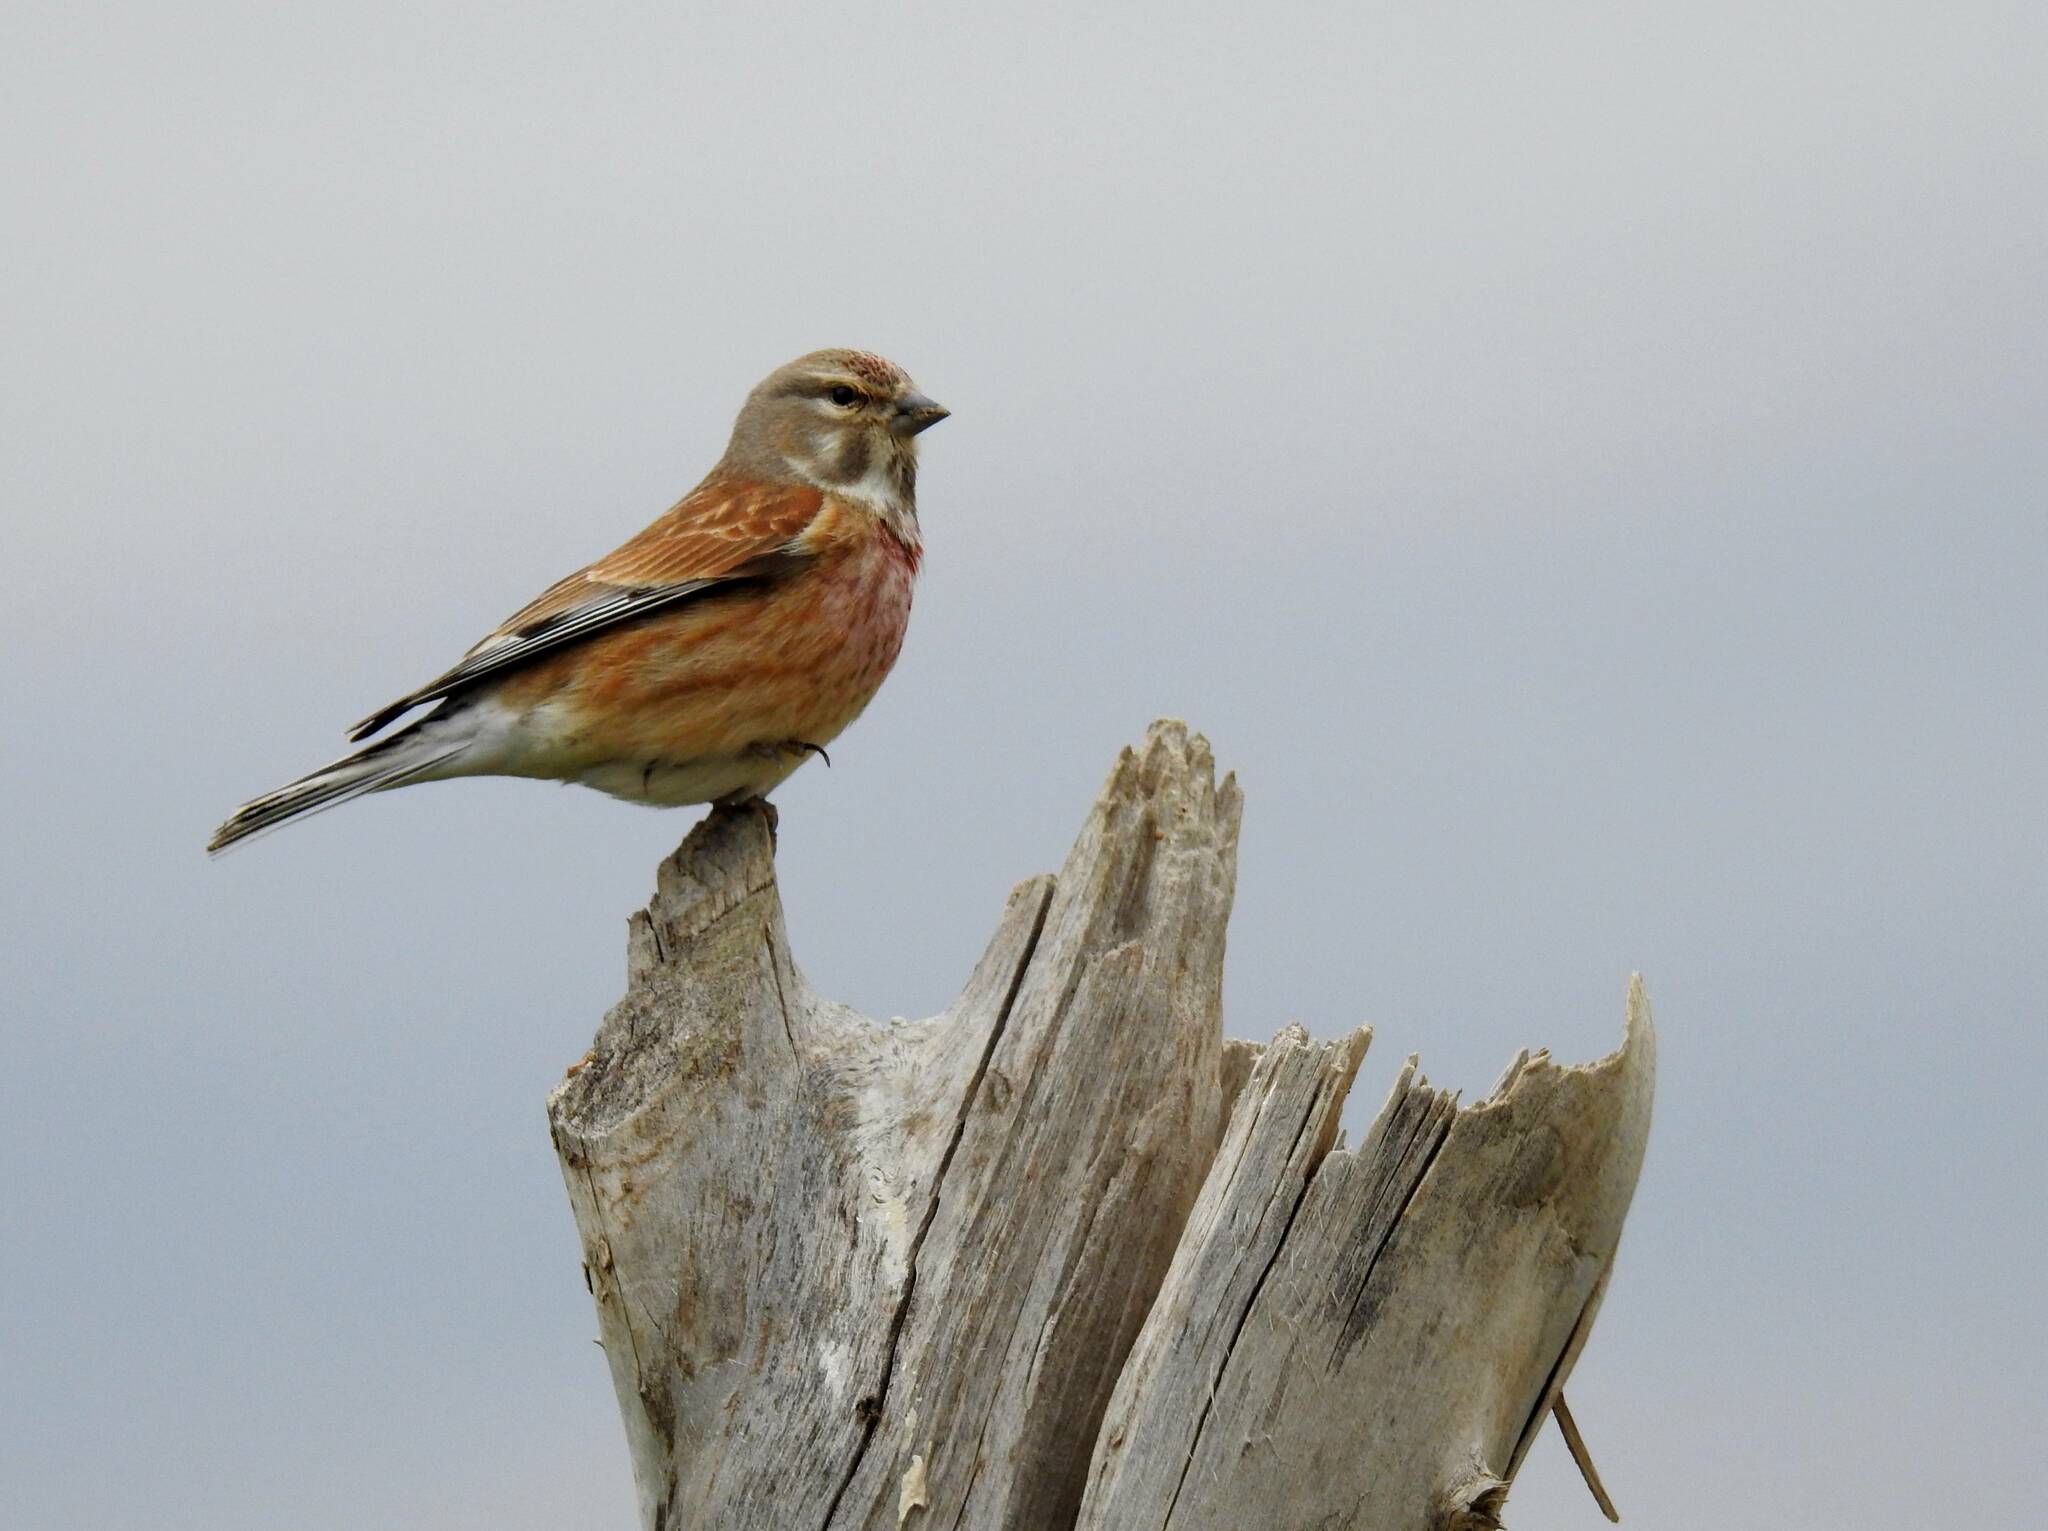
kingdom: Animalia
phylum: Chordata
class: Aves
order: Passeriformes
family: Fringillidae
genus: Linaria
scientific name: Linaria cannabina
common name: Common linnet
